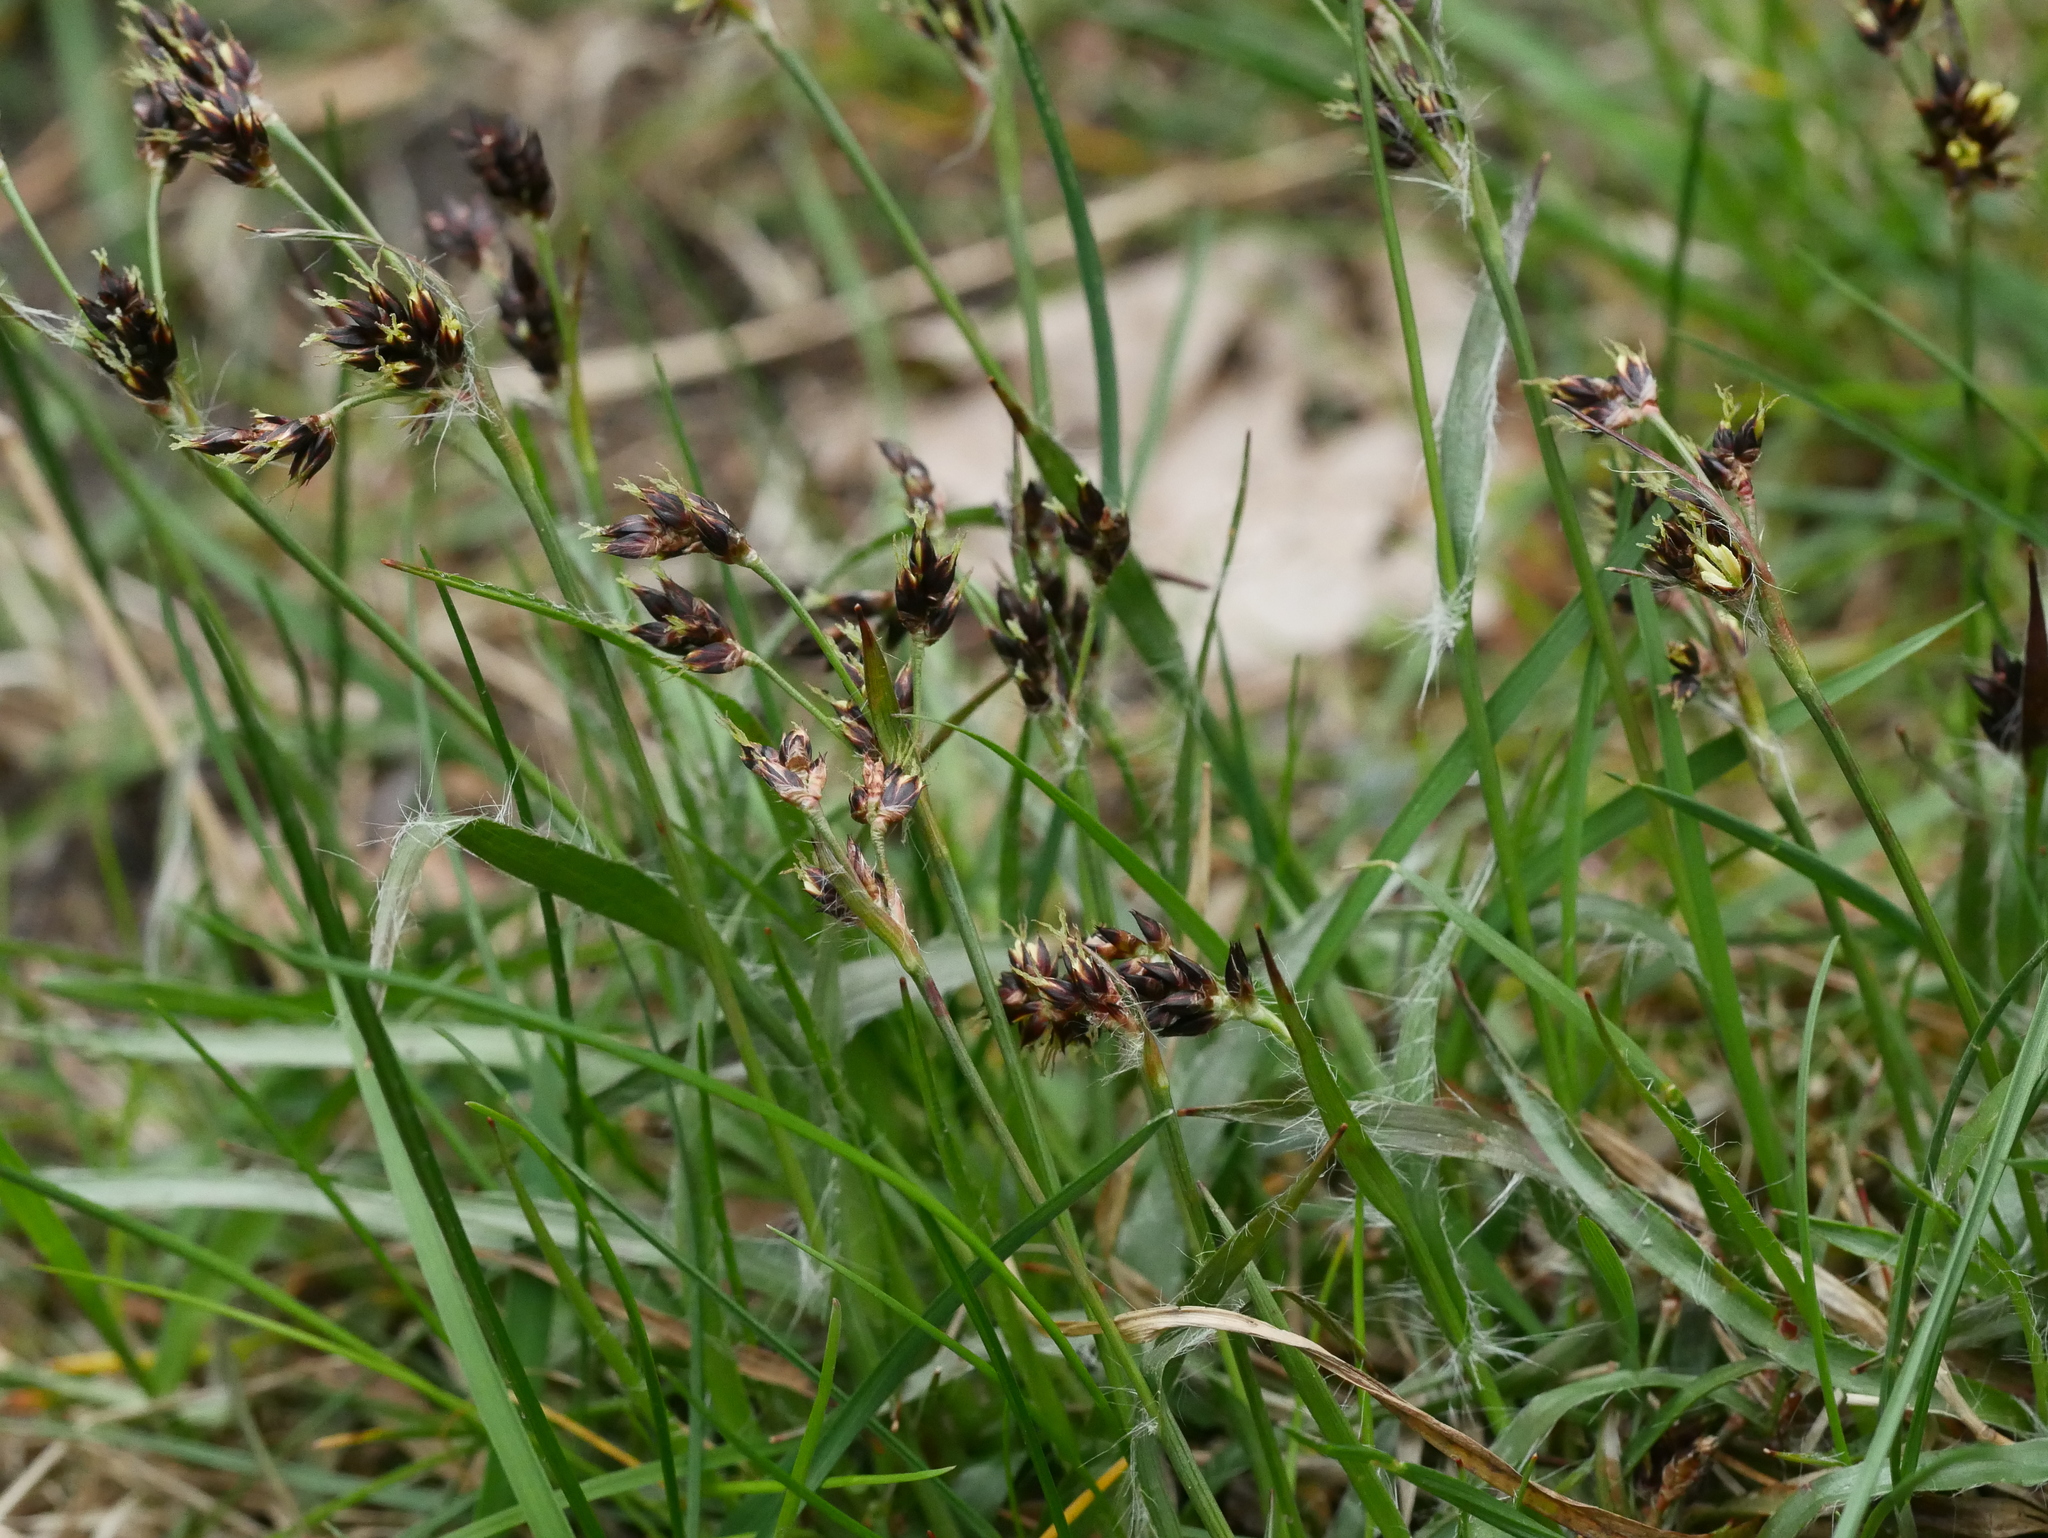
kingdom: Plantae
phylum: Tracheophyta
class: Liliopsida
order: Poales
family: Juncaceae
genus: Luzula
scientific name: Luzula campestris
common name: Field wood-rush
